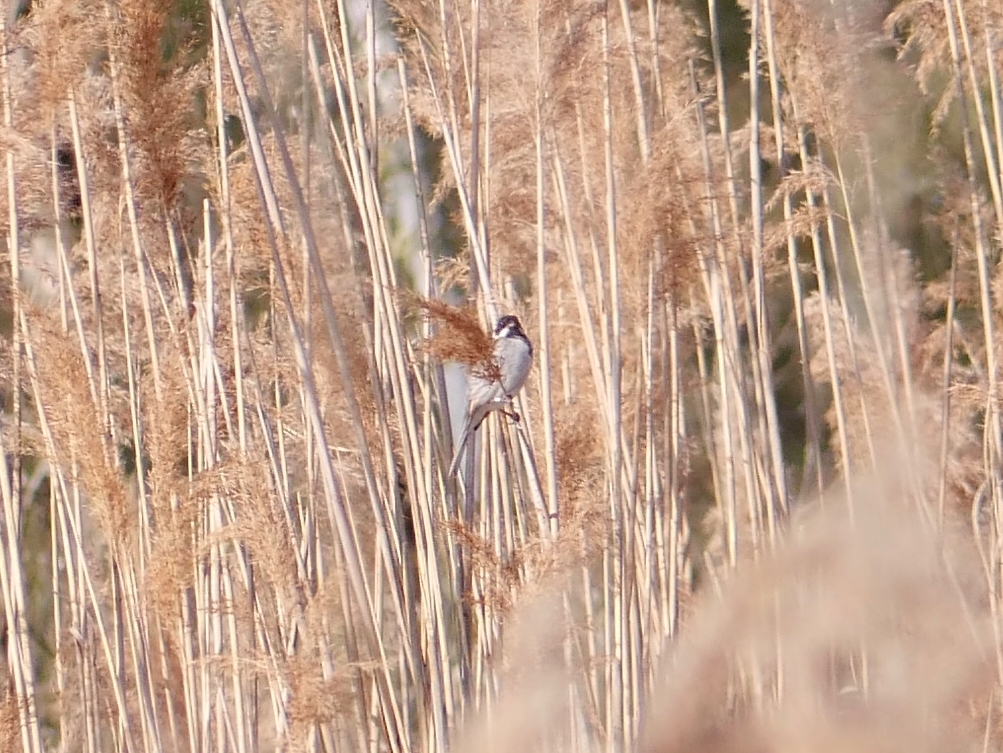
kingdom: Animalia
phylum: Chordata
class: Aves
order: Passeriformes
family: Emberizidae
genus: Emberiza
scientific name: Emberiza schoeniclus
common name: Reed bunting
